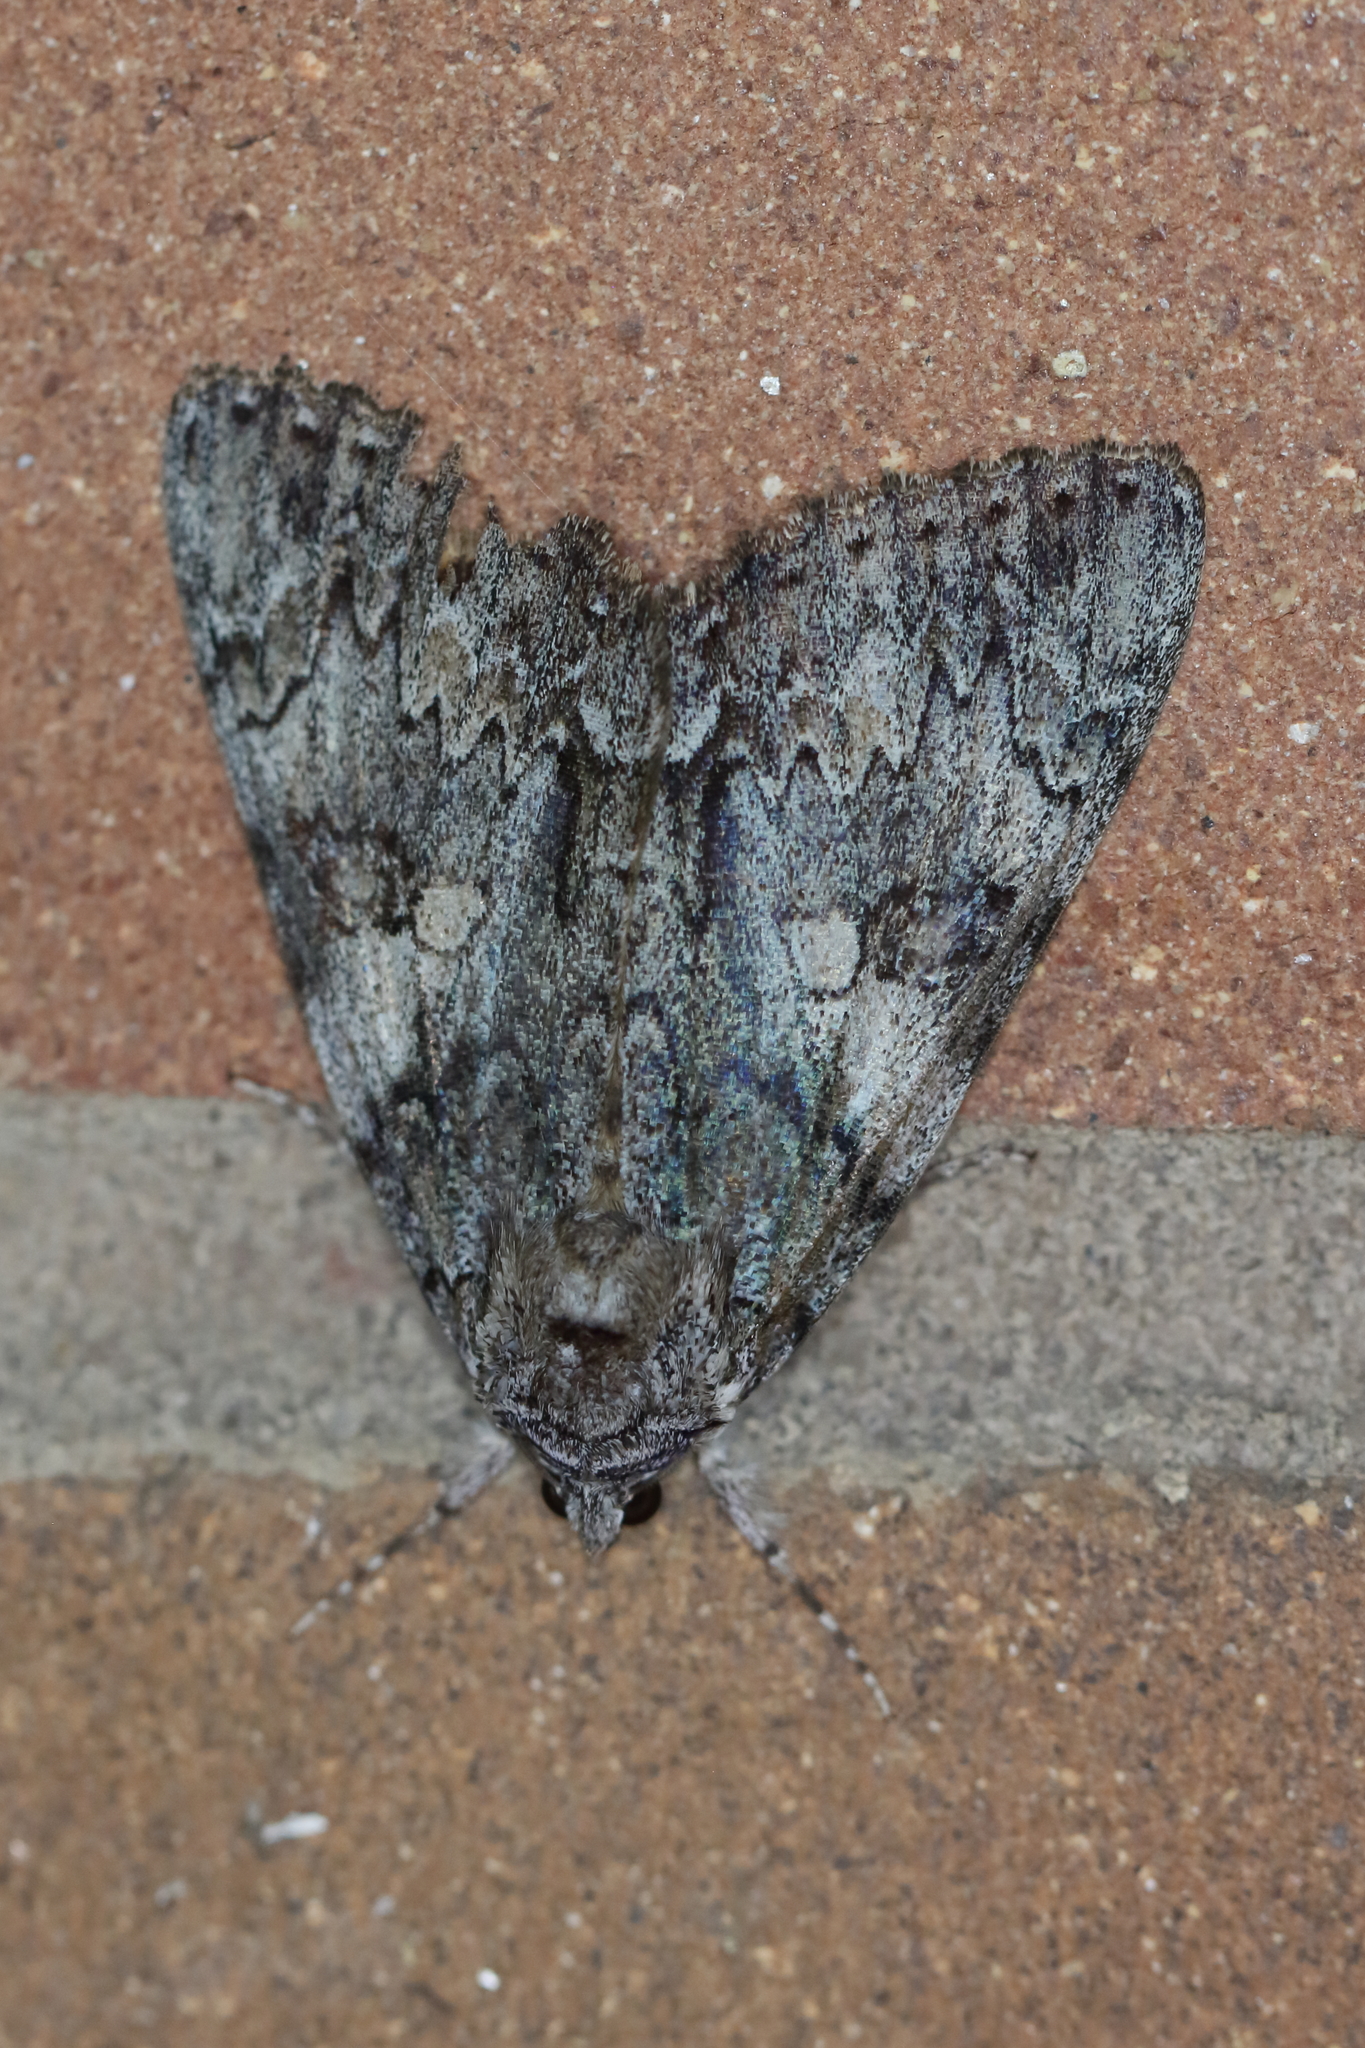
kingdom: Animalia
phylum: Arthropoda
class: Insecta
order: Lepidoptera
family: Erebidae
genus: Catocala
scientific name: Catocala palaeogama
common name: Oldwife underwing
